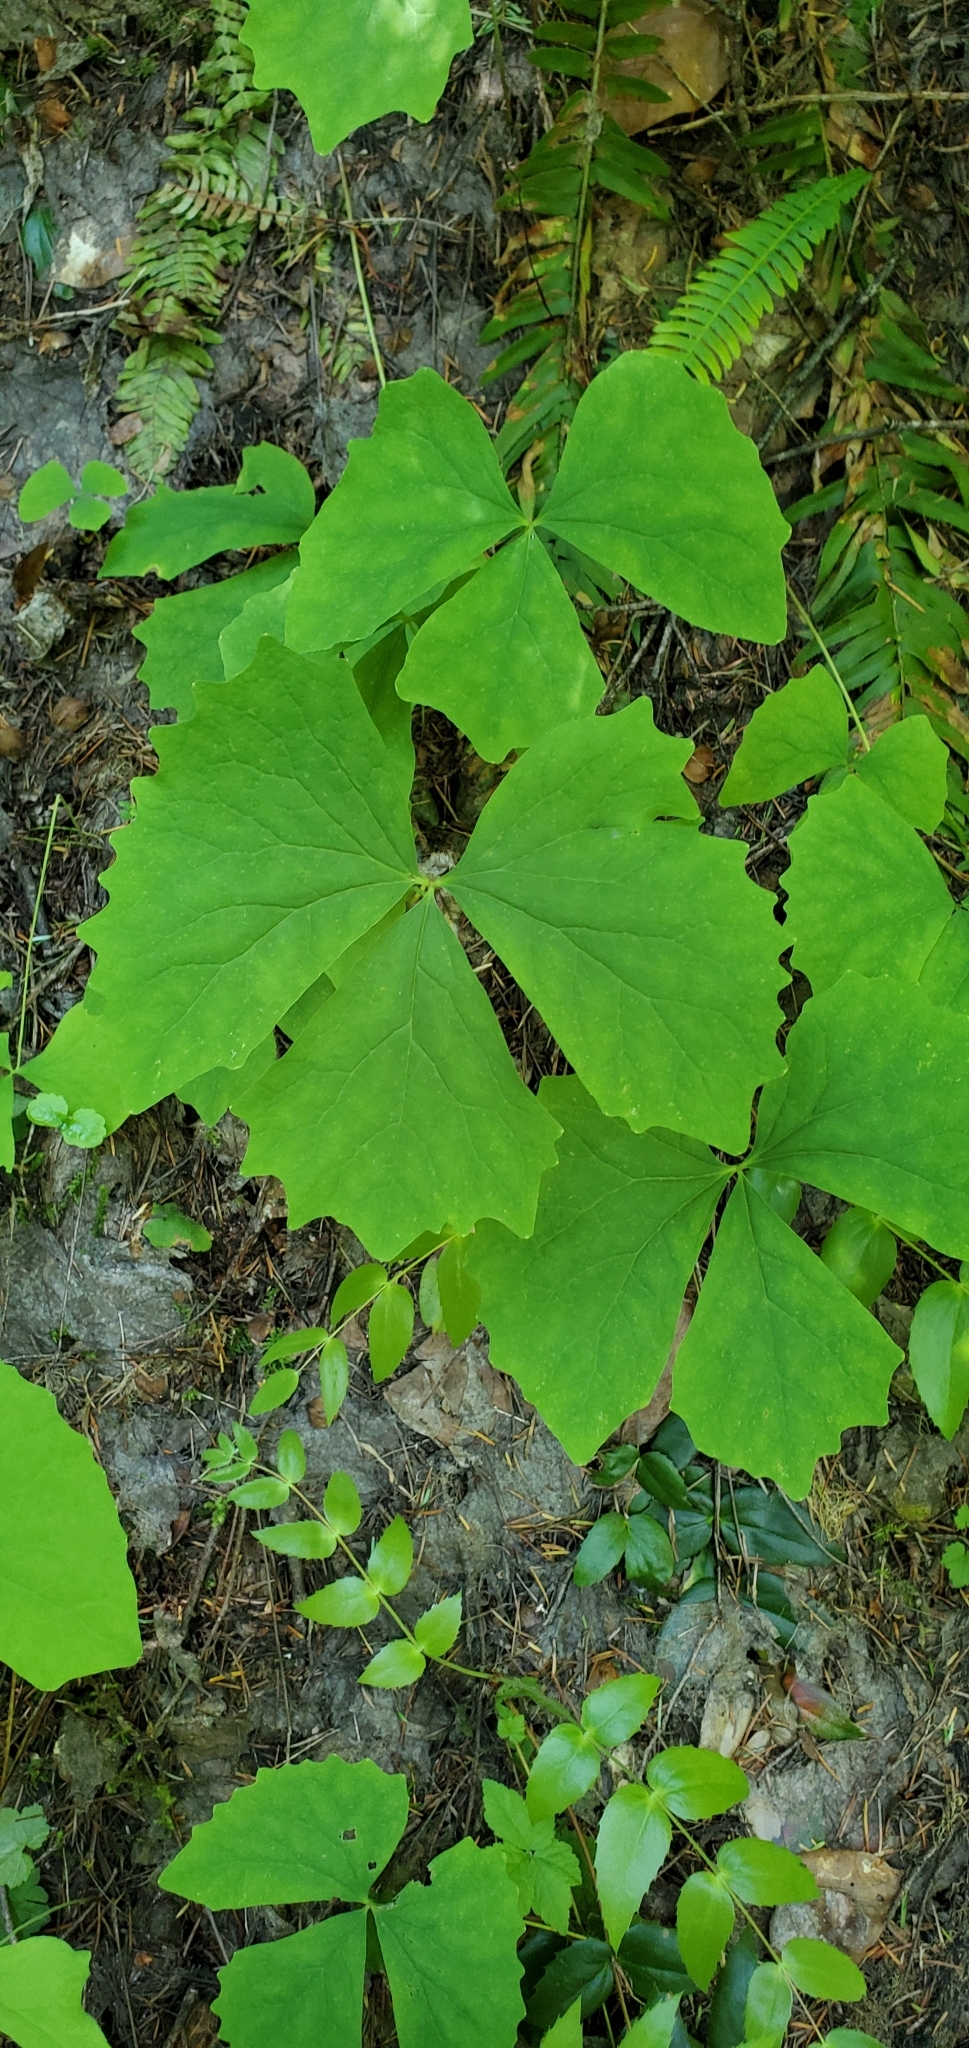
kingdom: Plantae
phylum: Tracheophyta
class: Magnoliopsida
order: Ranunculales
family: Berberidaceae
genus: Achlys
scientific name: Achlys triphylla
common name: Vanilla-leaf
